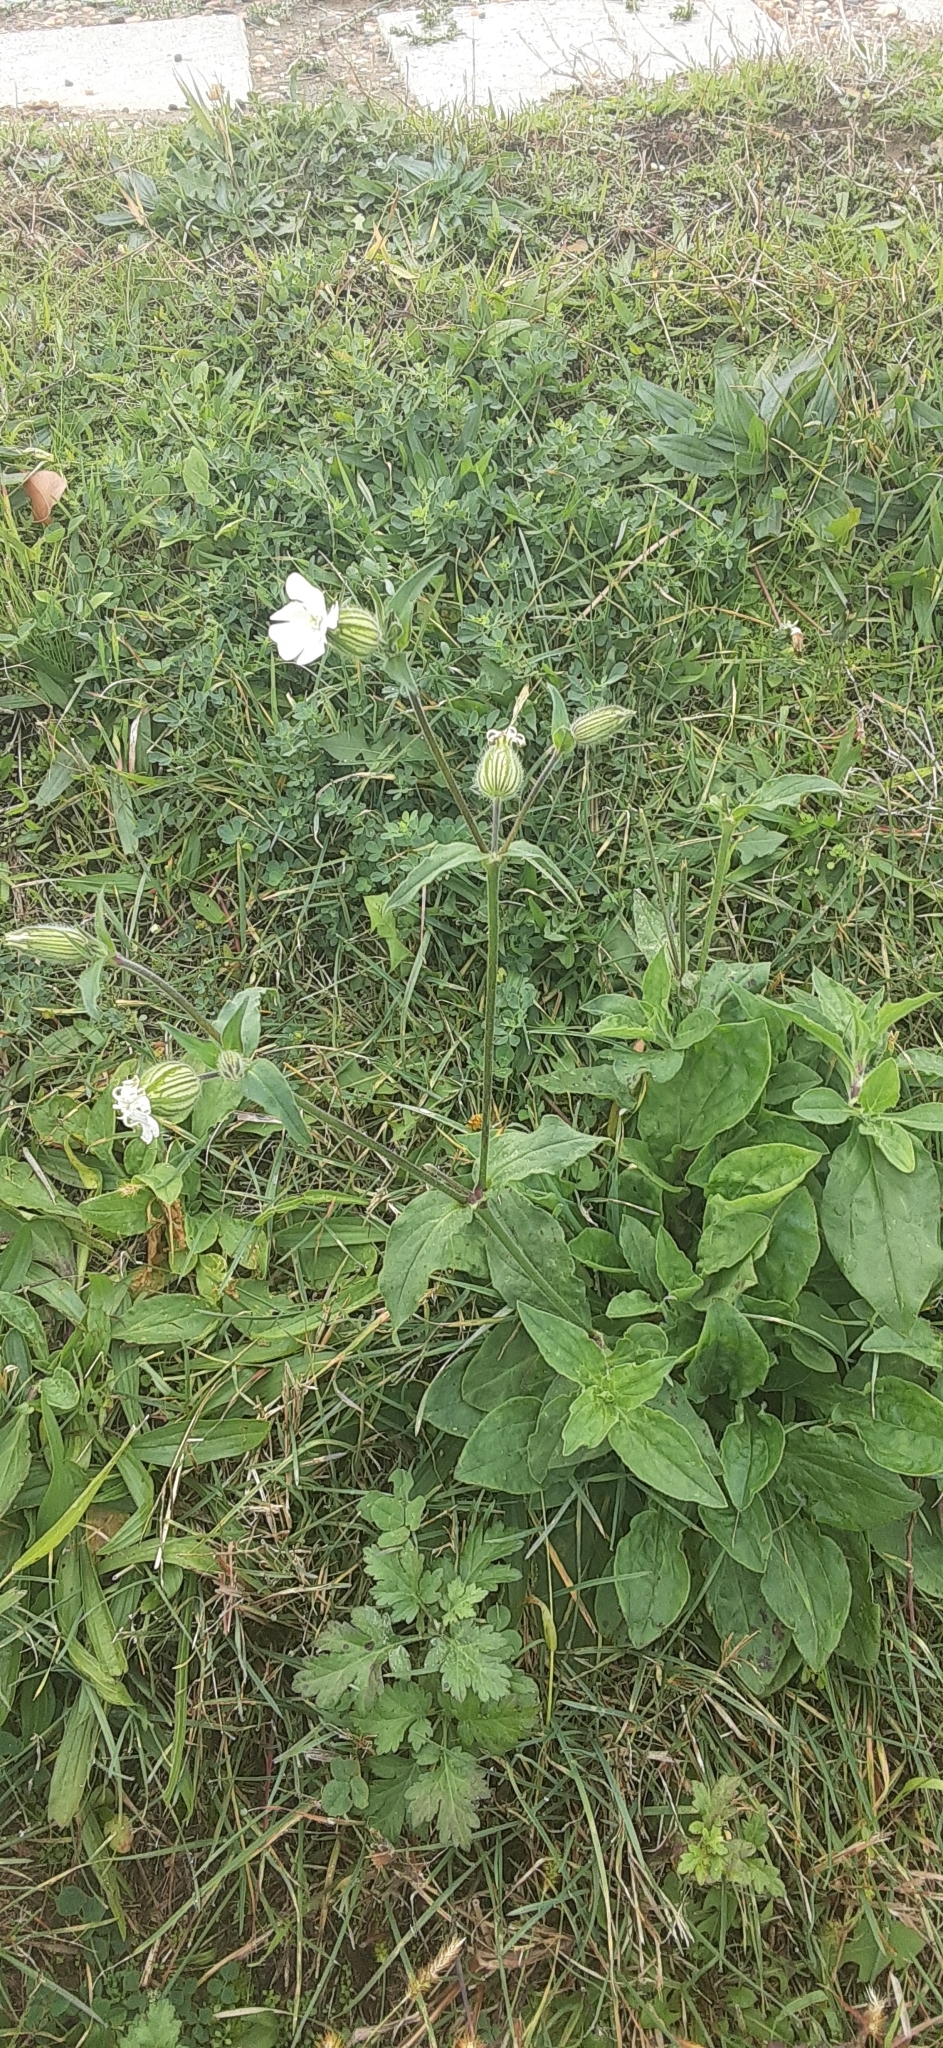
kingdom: Plantae
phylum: Tracheophyta
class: Magnoliopsida
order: Caryophyllales
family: Caryophyllaceae
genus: Silene
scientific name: Silene latifolia
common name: White campion
